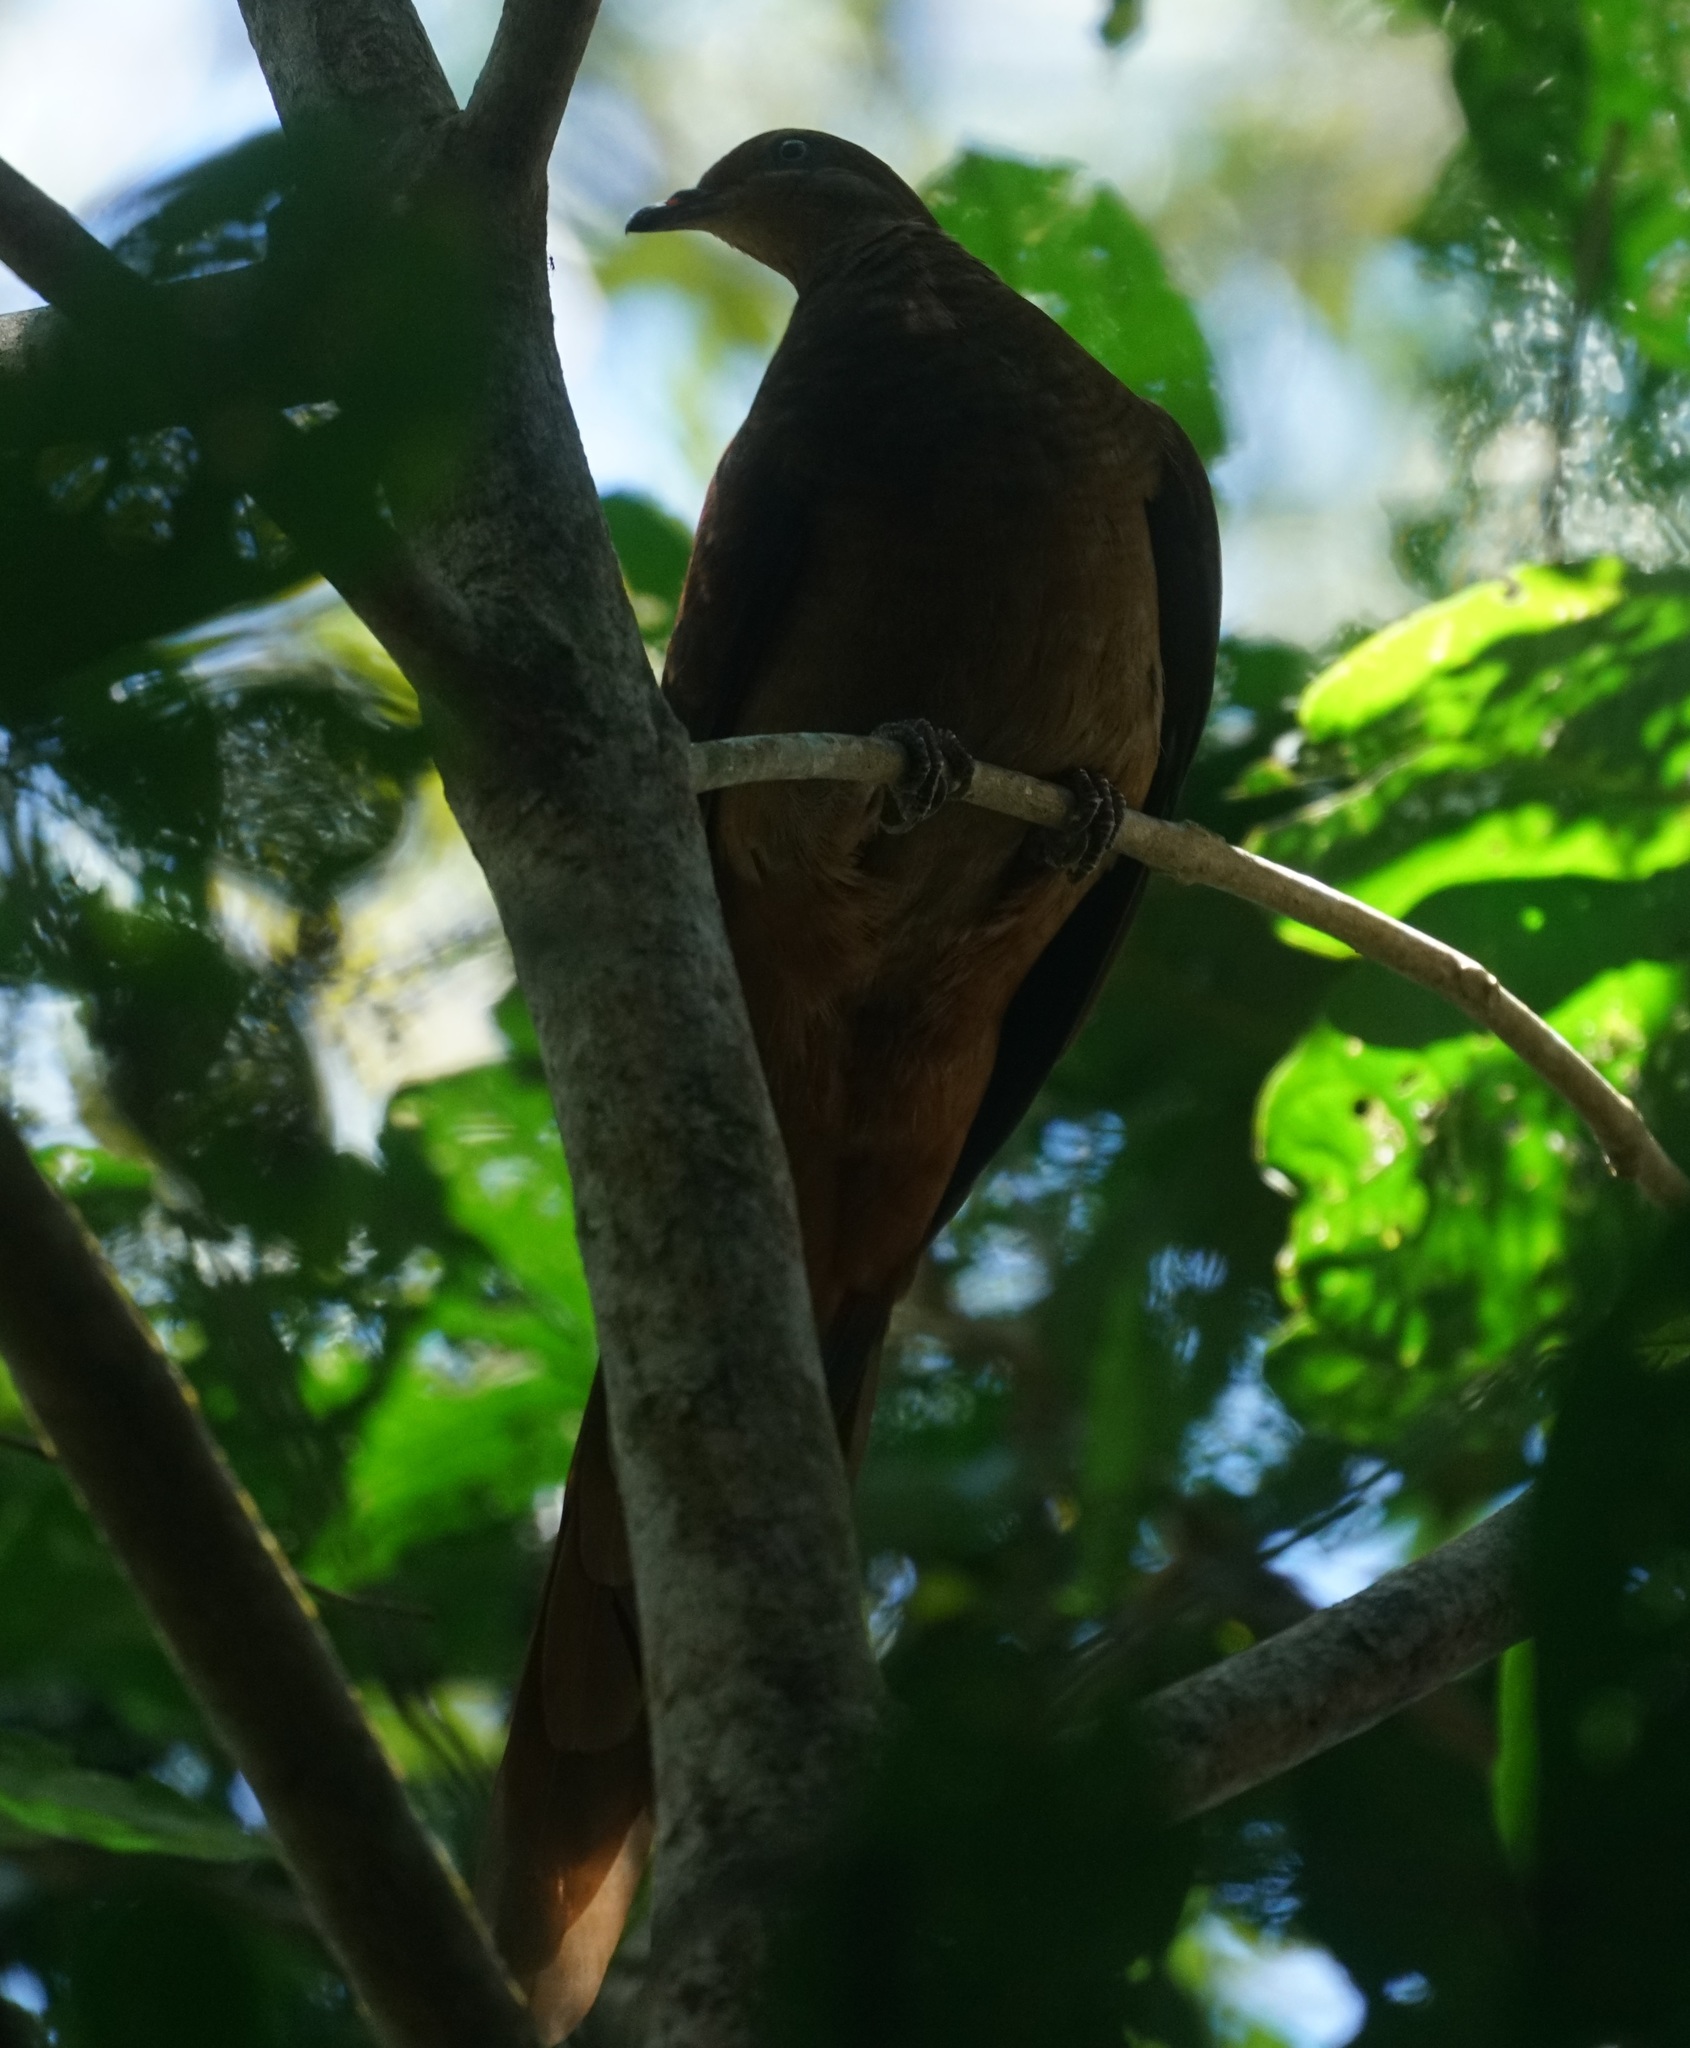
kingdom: Animalia
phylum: Chordata
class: Aves
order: Columbiformes
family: Columbidae
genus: Macropygia
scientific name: Macropygia phasianella
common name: Brown cuckoo-dove
